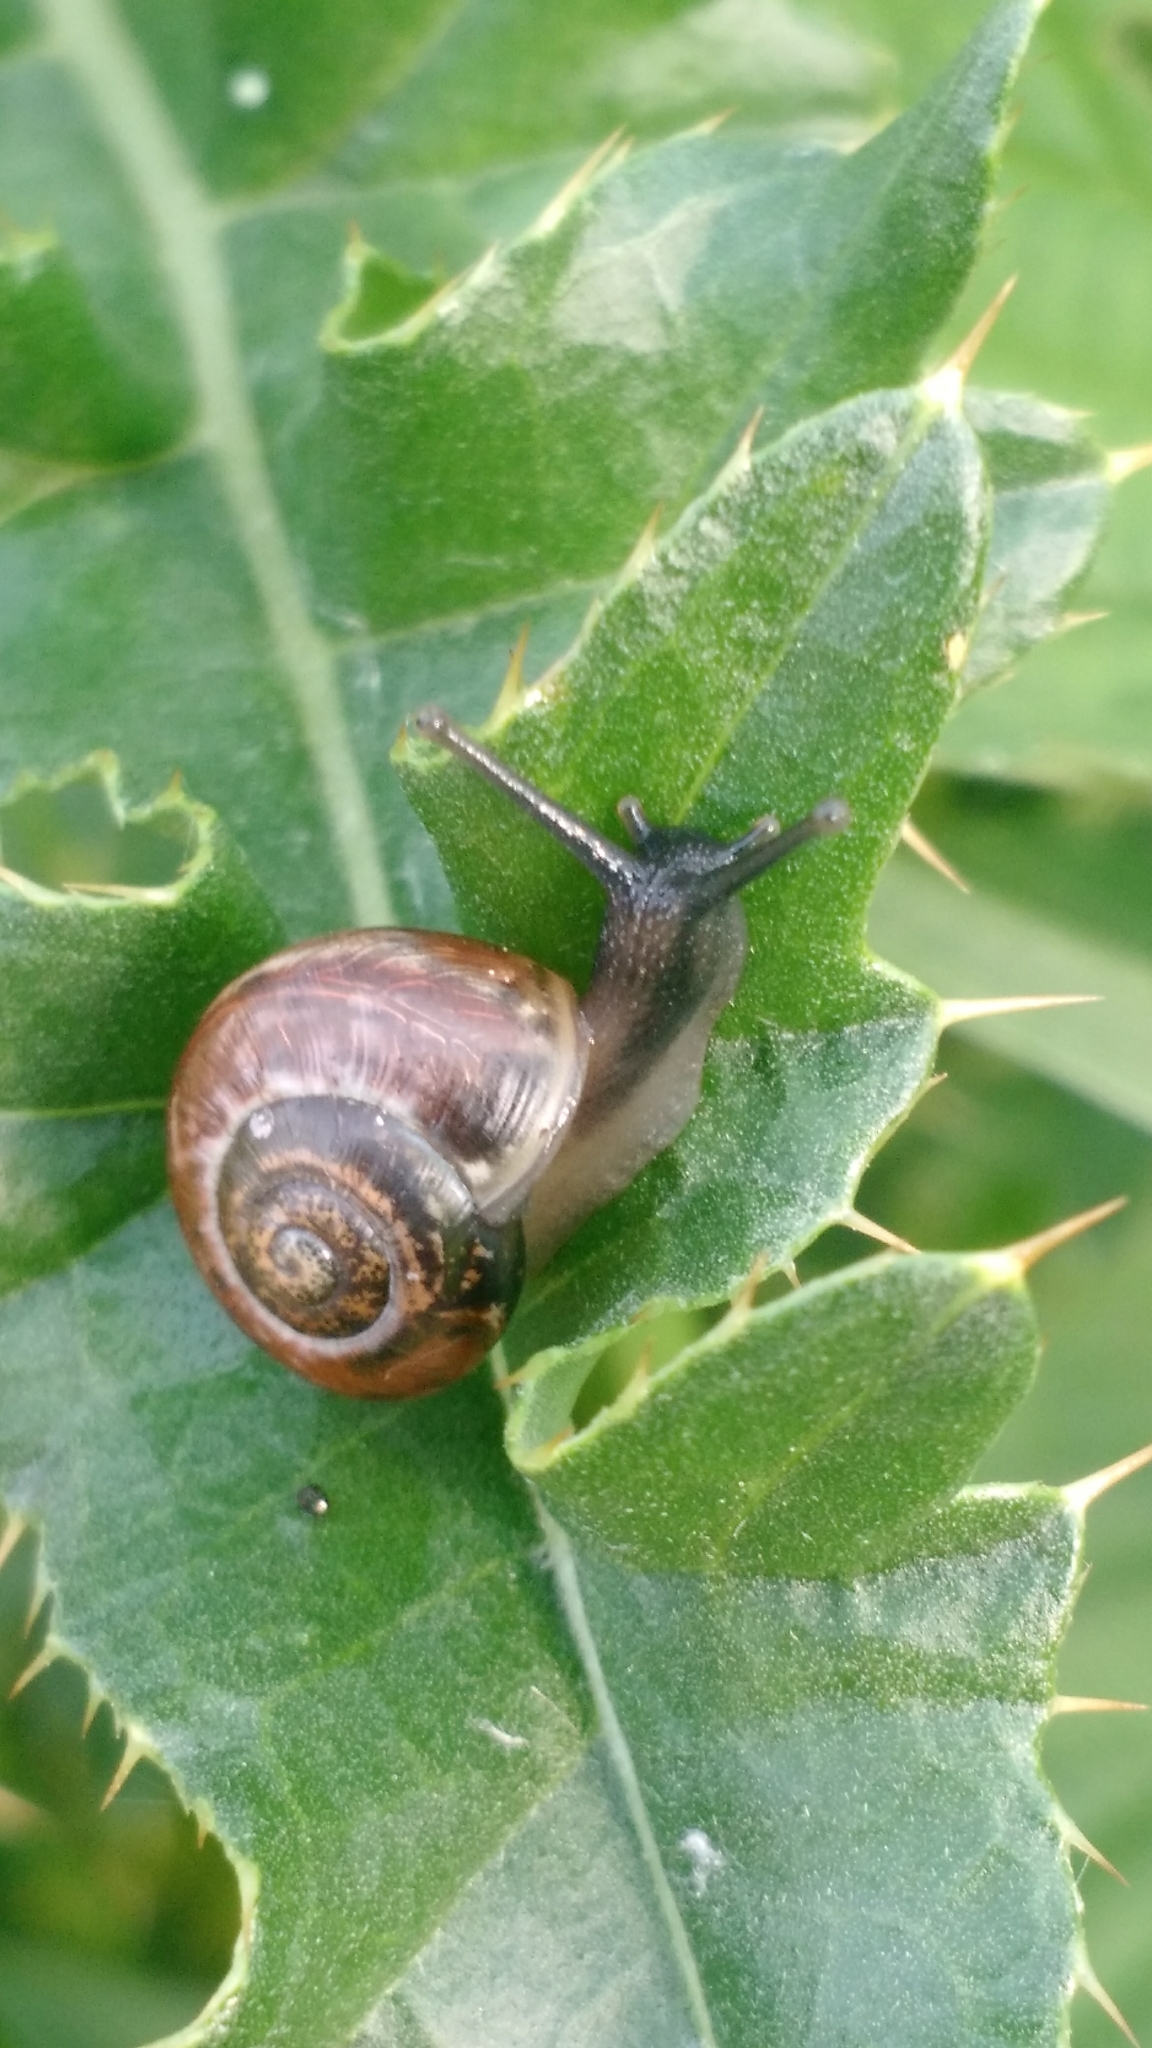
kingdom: Animalia
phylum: Mollusca
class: Gastropoda
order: Stylommatophora
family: Helicidae
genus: Arianta
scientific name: Arianta arbustorum
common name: Copse snail
